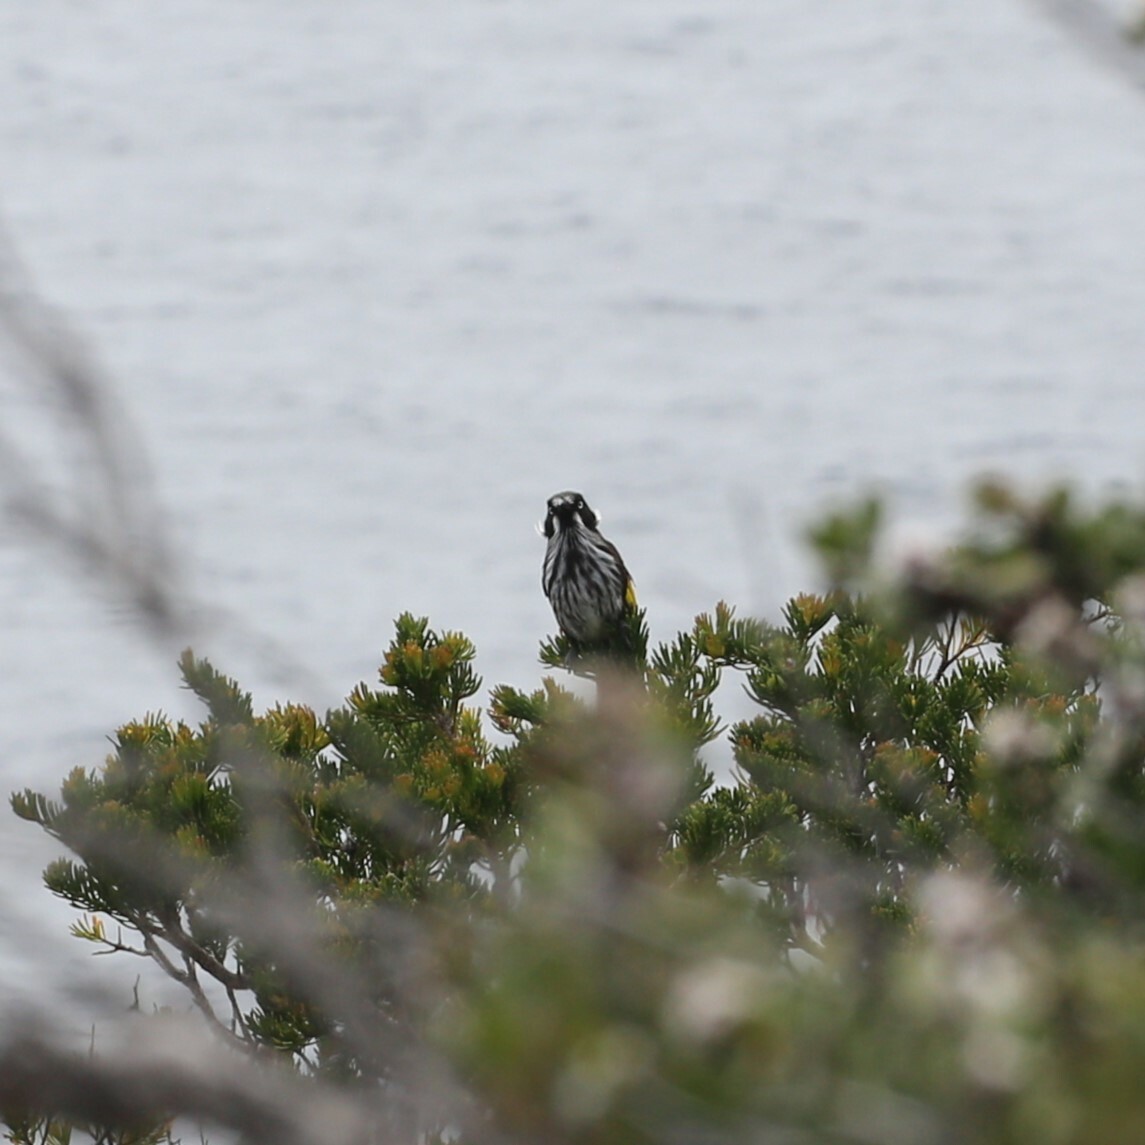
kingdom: Animalia
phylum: Chordata
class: Aves
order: Passeriformes
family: Meliphagidae
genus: Phylidonyris
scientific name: Phylidonyris novaehollandiae
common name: New holland honeyeater
